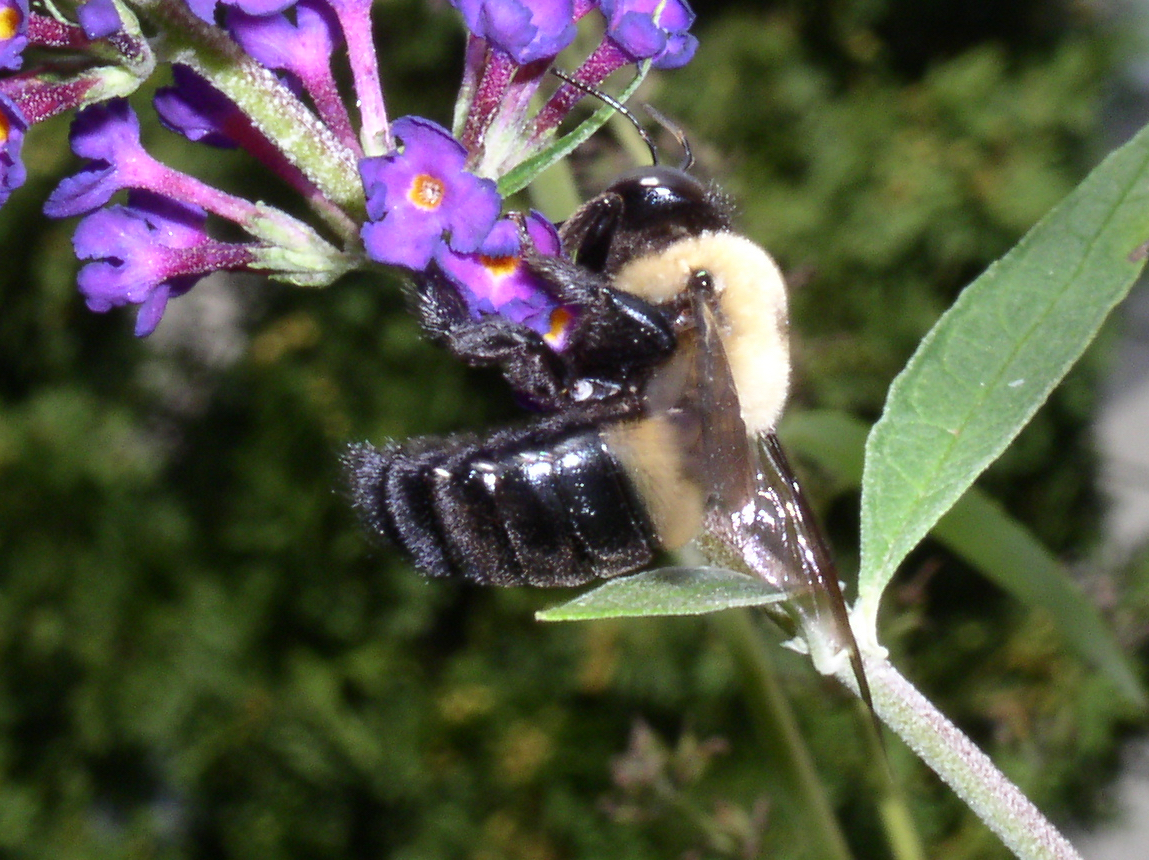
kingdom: Animalia
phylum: Arthropoda
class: Insecta
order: Hymenoptera
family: Apidae
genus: Xylocopa
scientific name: Xylocopa virginica
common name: Carpenter bee
